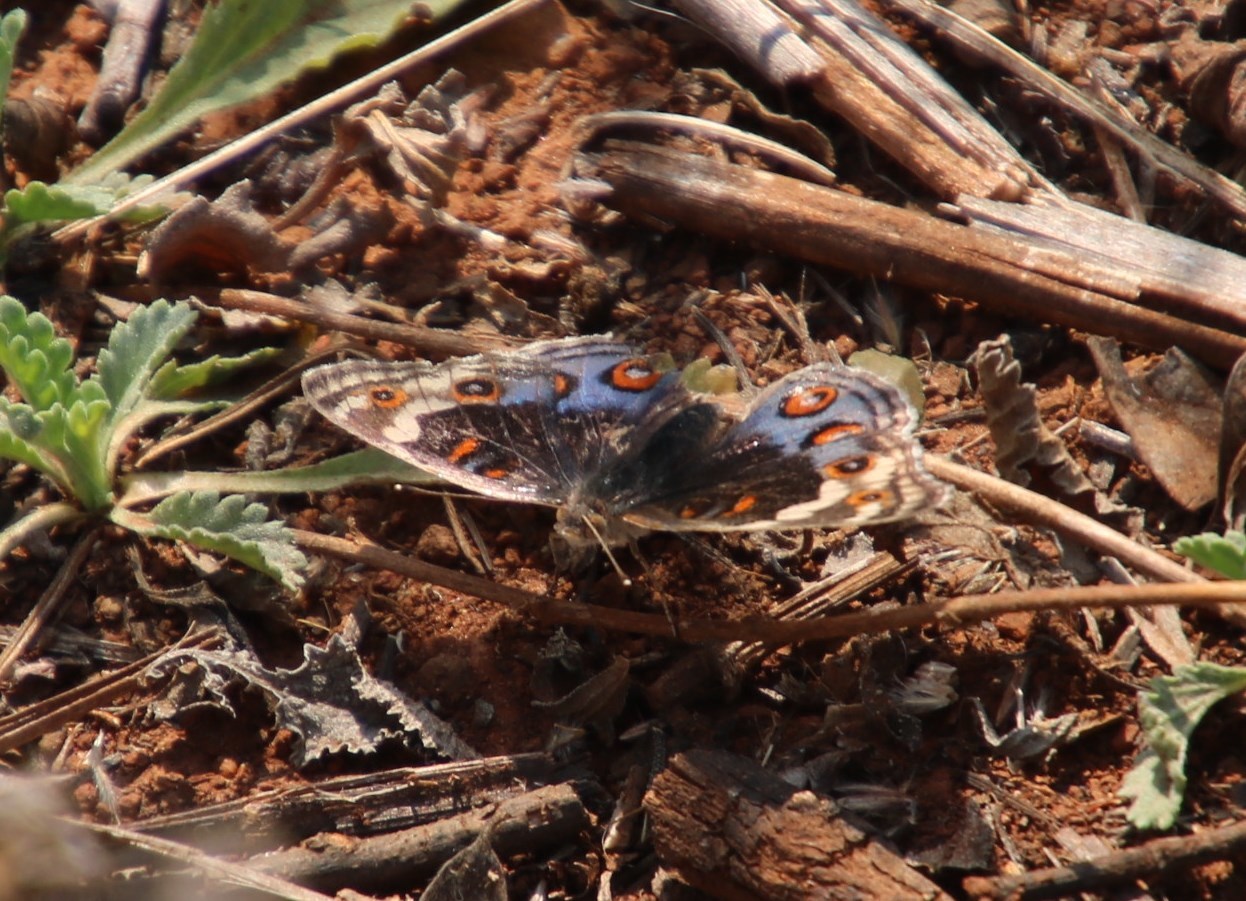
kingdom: Animalia
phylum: Arthropoda
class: Insecta
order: Lepidoptera
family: Nymphalidae
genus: Junonia
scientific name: Junonia orithya
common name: Blue pansy
